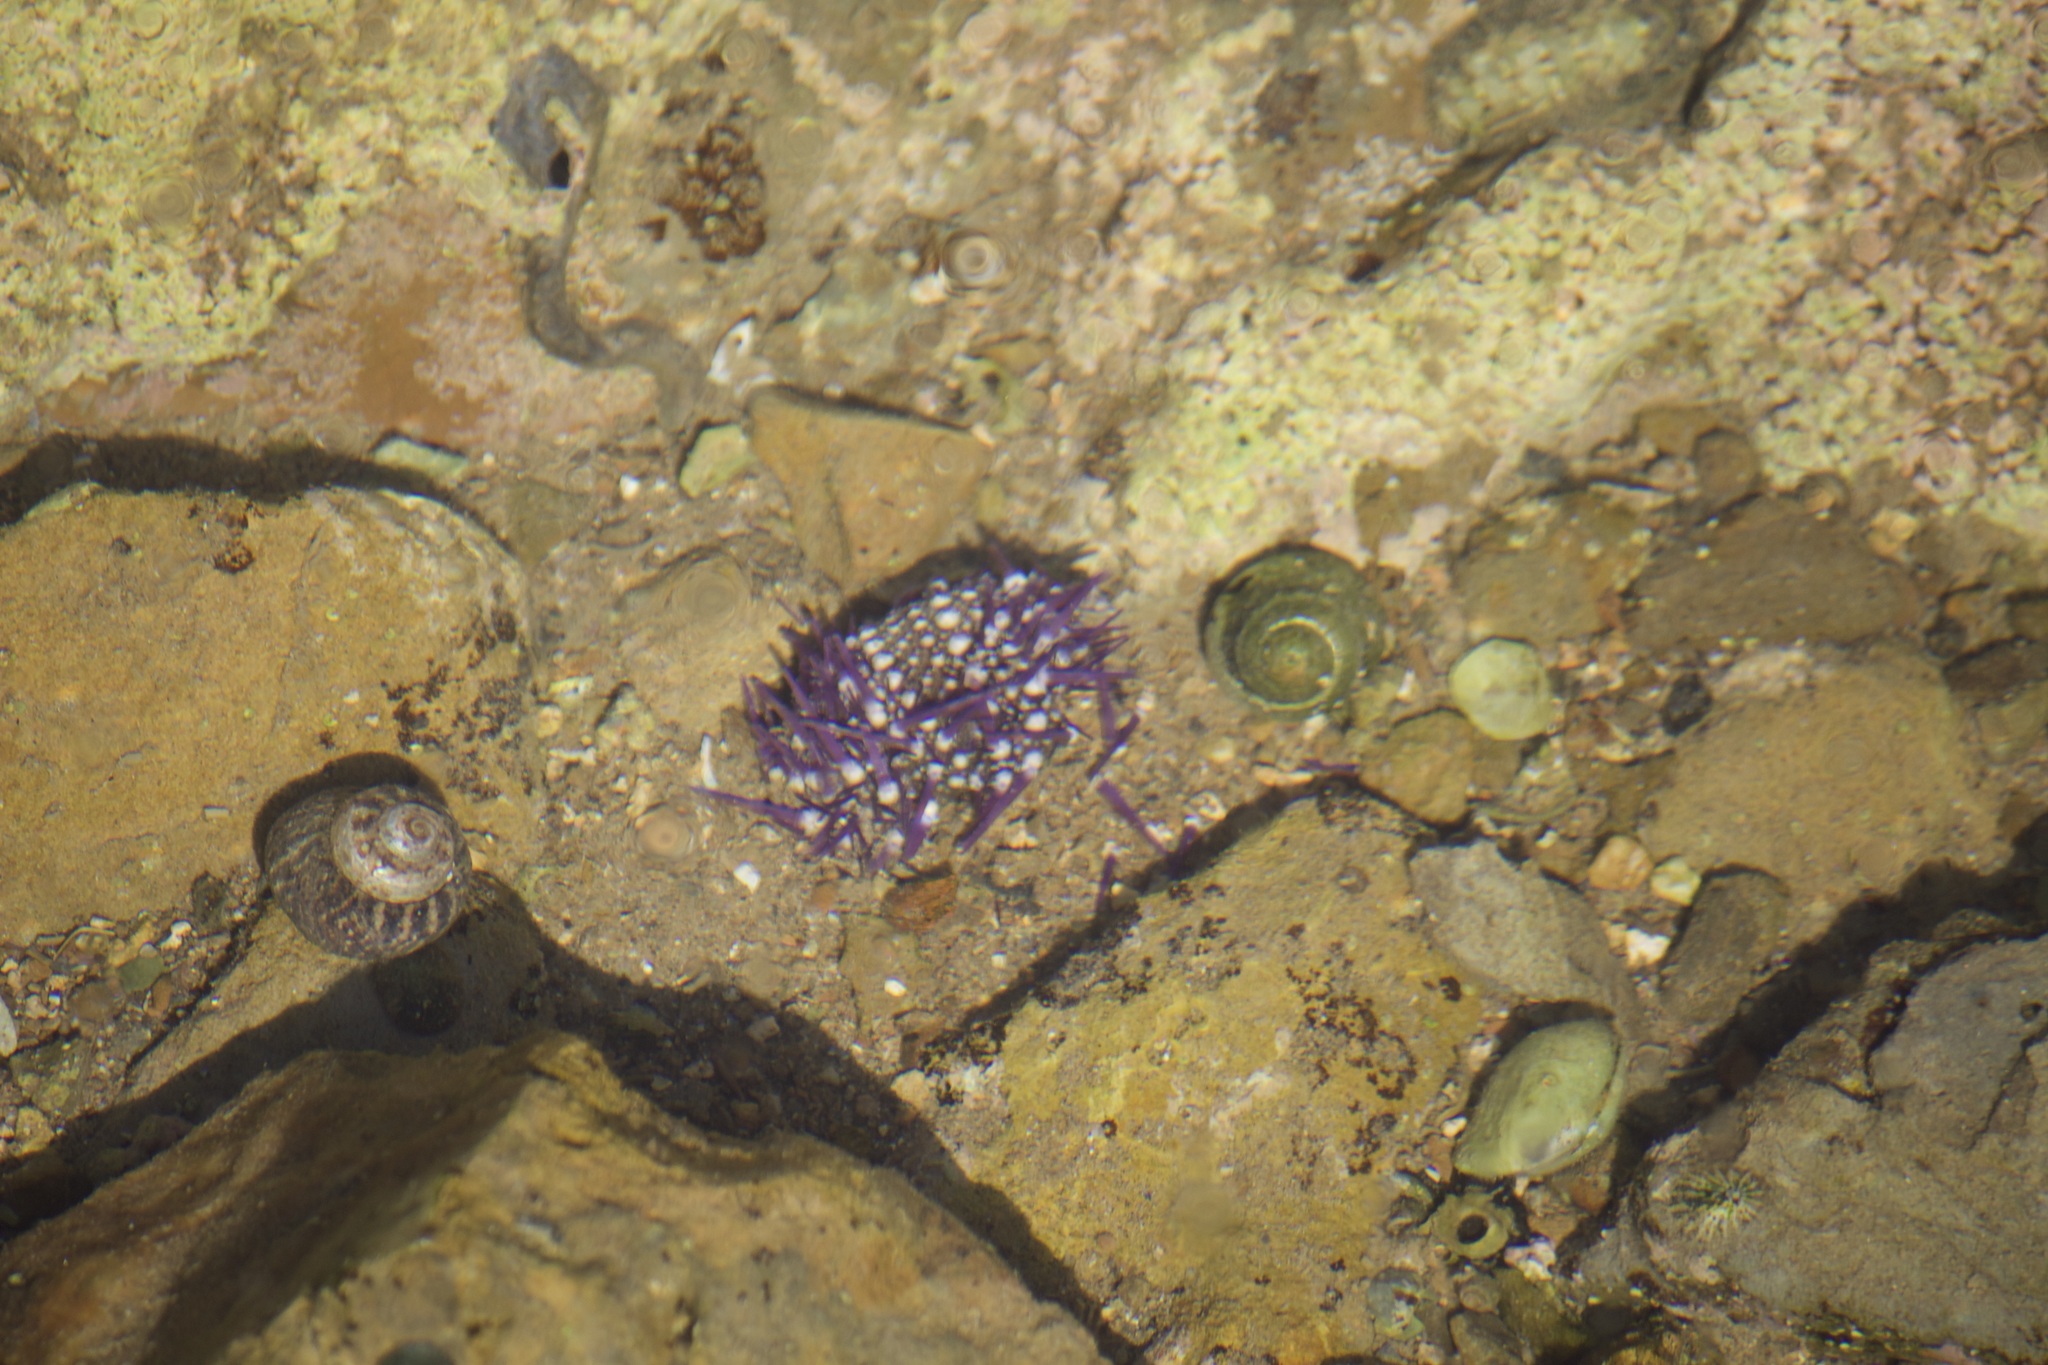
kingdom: Animalia
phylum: Echinodermata
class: Echinoidea
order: Camarodonta
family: Strongylocentrotidae
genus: Strongylocentrotus
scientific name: Strongylocentrotus purpuratus
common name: Purple sea urchin
